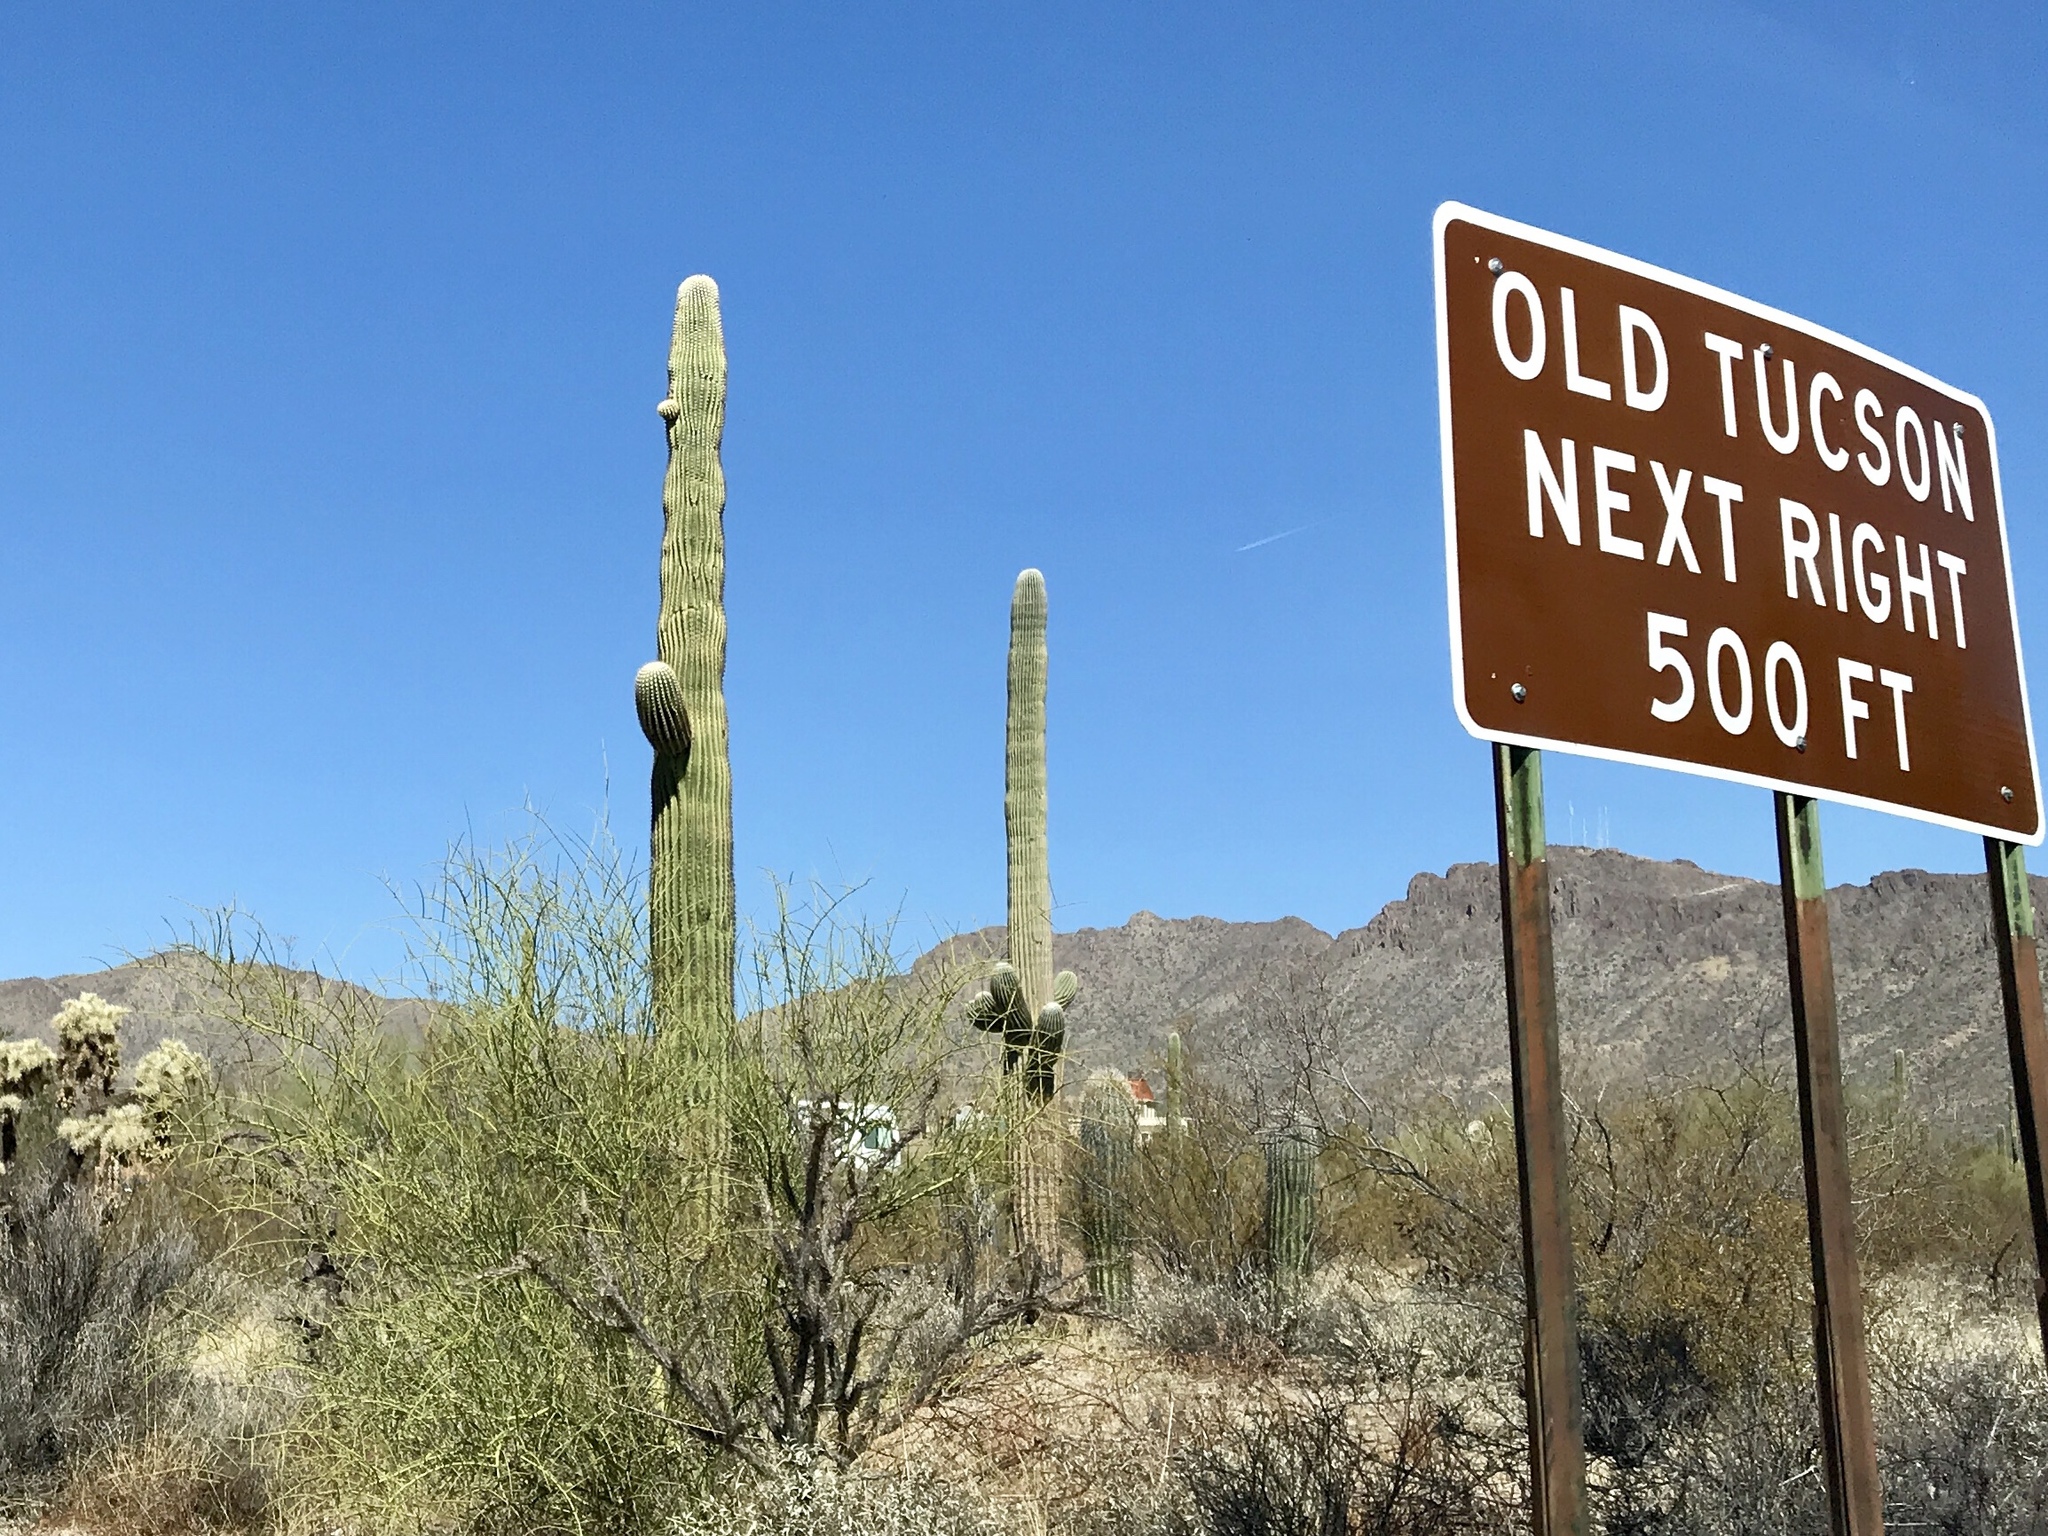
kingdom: Plantae
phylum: Tracheophyta
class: Magnoliopsida
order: Caryophyllales
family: Cactaceae
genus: Carnegiea
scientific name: Carnegiea gigantea
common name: Saguaro
